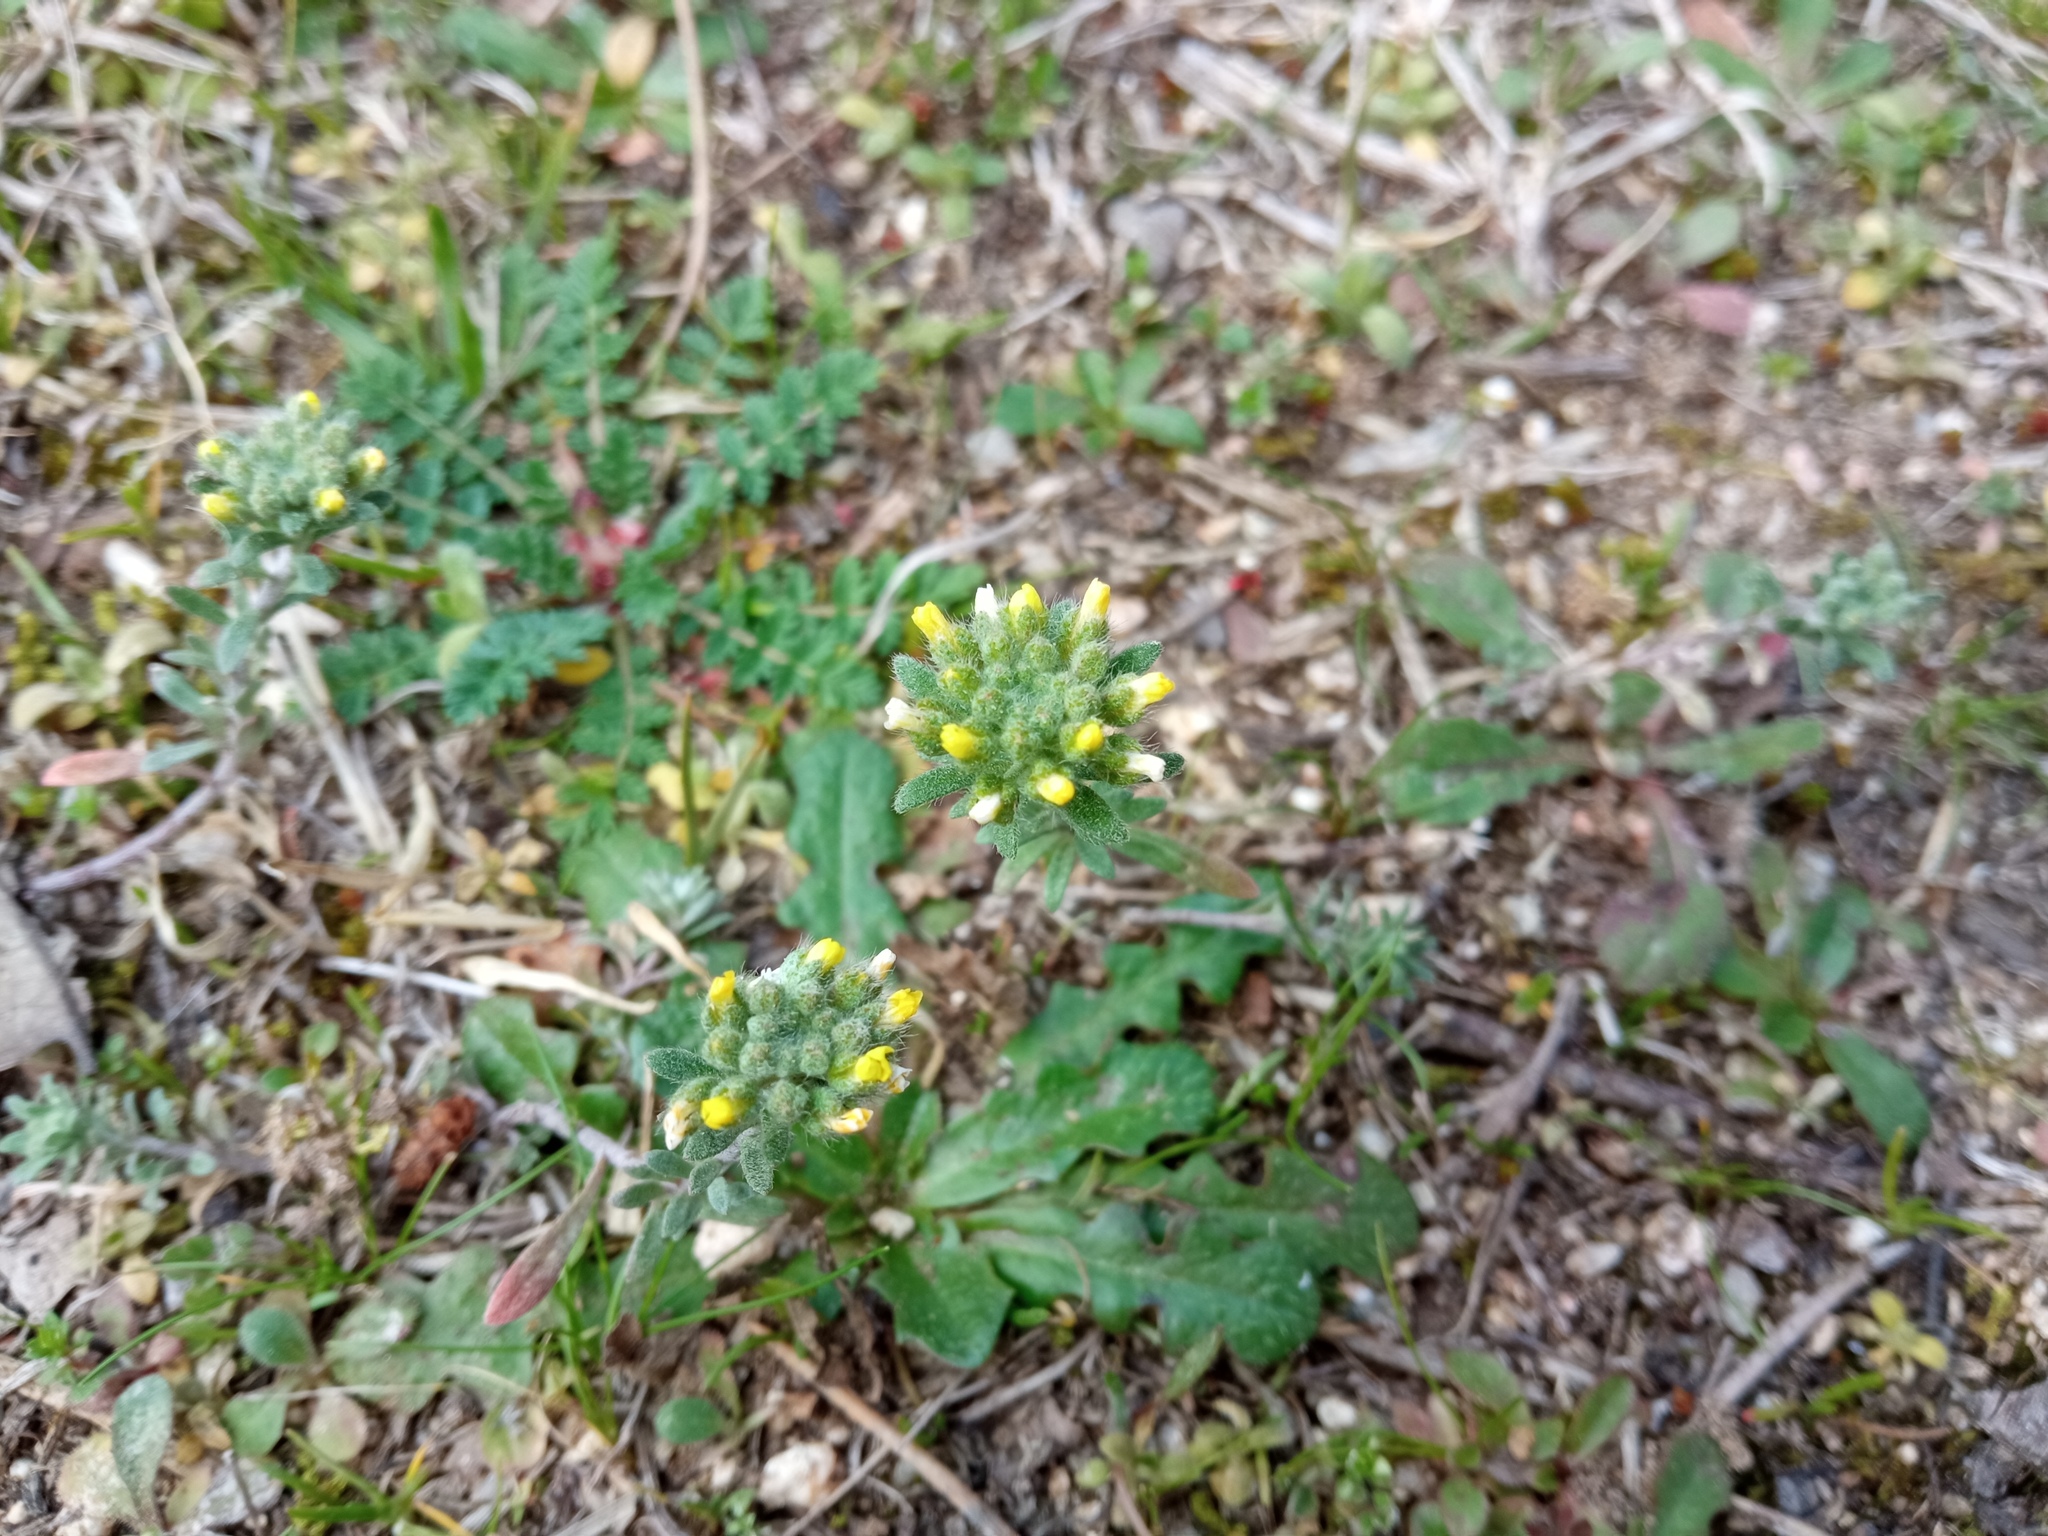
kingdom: Plantae
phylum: Tracheophyta
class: Magnoliopsida
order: Brassicales
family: Brassicaceae
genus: Alyssum
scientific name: Alyssum alyssoides
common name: Small alison
